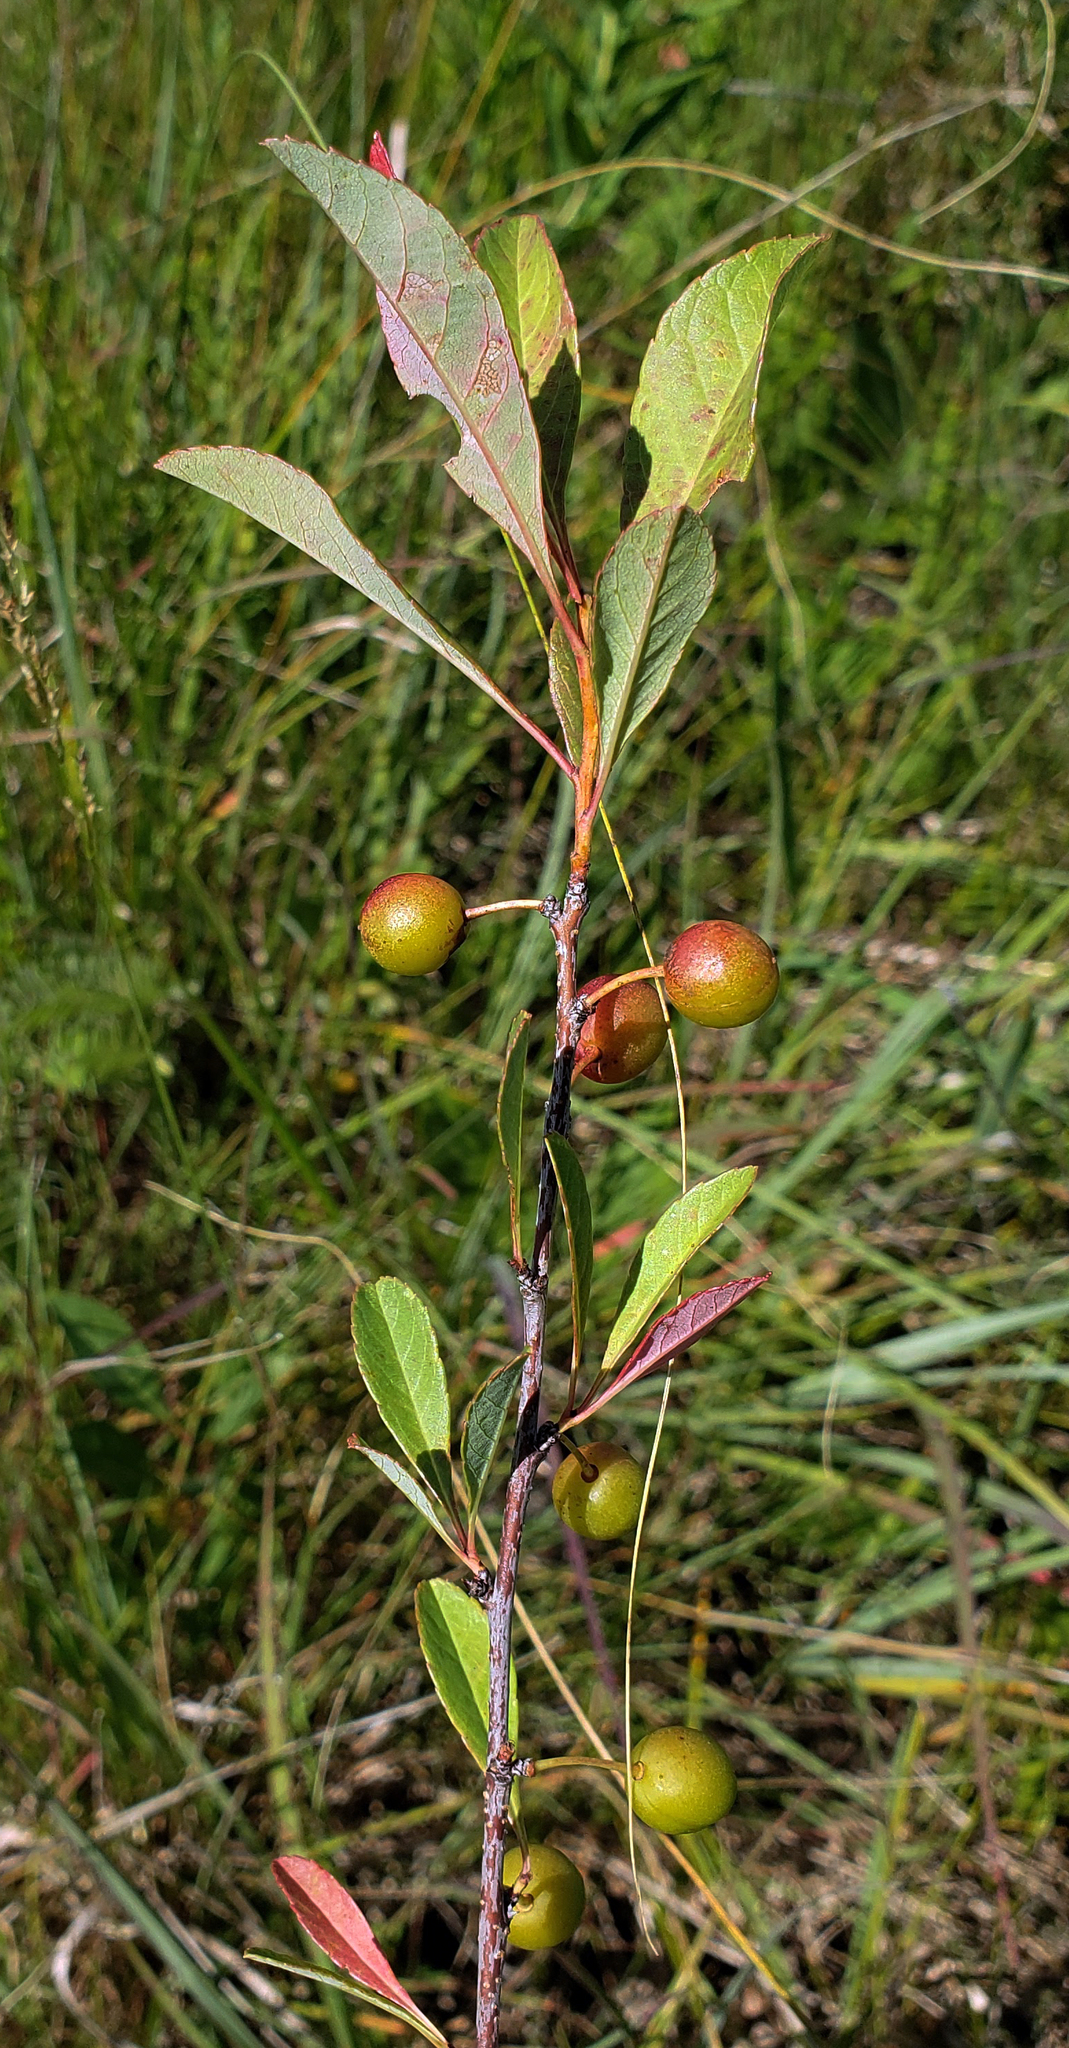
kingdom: Plantae
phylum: Tracheophyta
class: Magnoliopsida
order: Rosales
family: Rosaceae
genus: Prunus
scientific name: Prunus pumila
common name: Dwarf cherry
